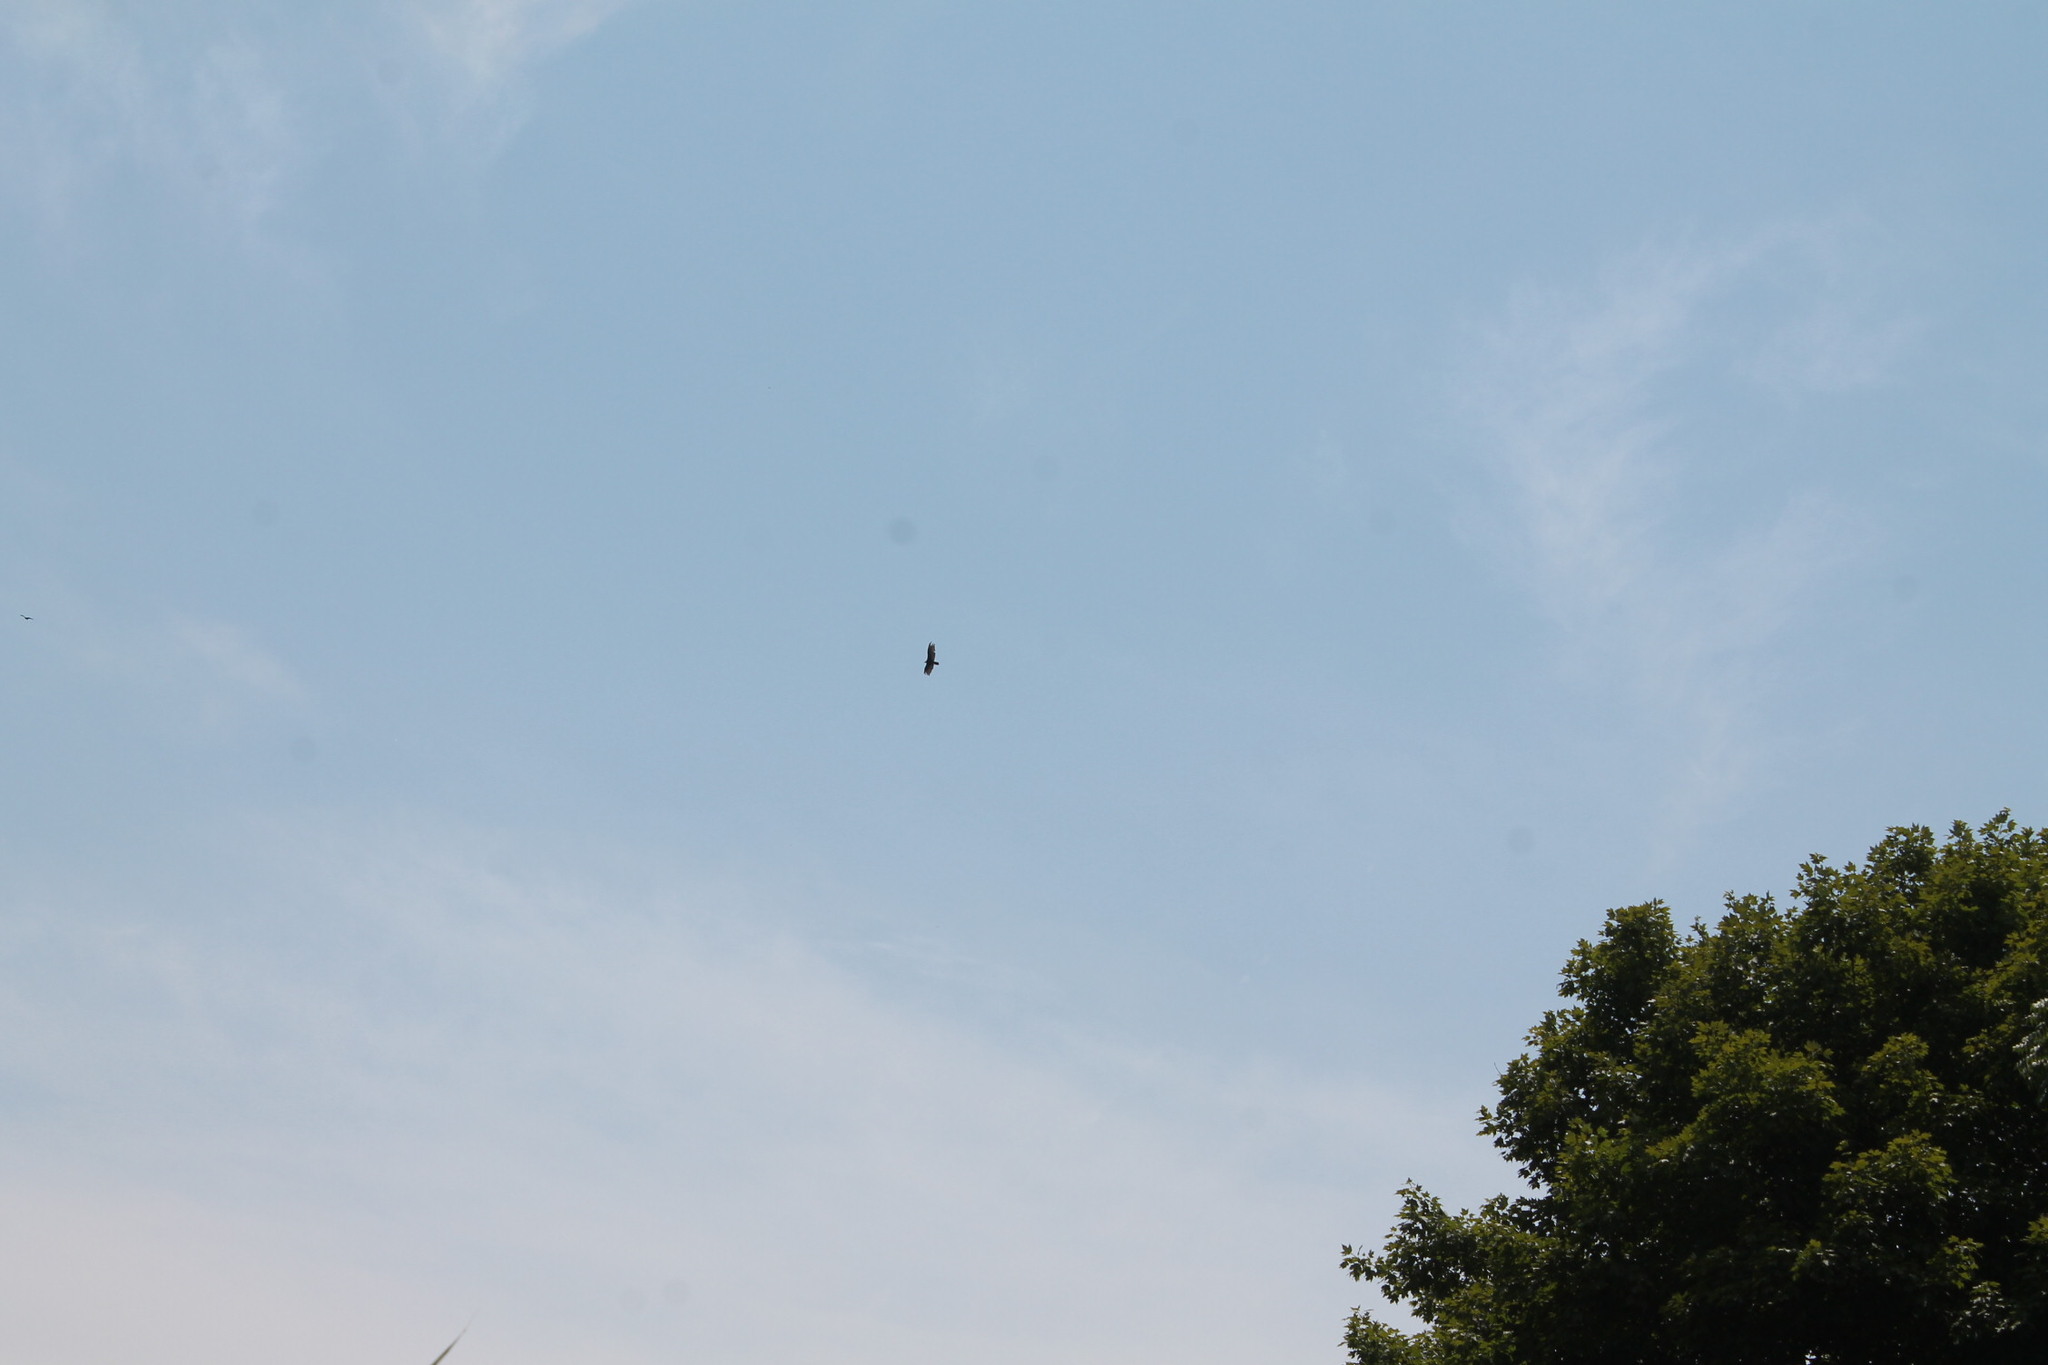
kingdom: Animalia
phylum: Chordata
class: Aves
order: Accipitriformes
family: Cathartidae
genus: Cathartes
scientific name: Cathartes aura
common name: Turkey vulture
